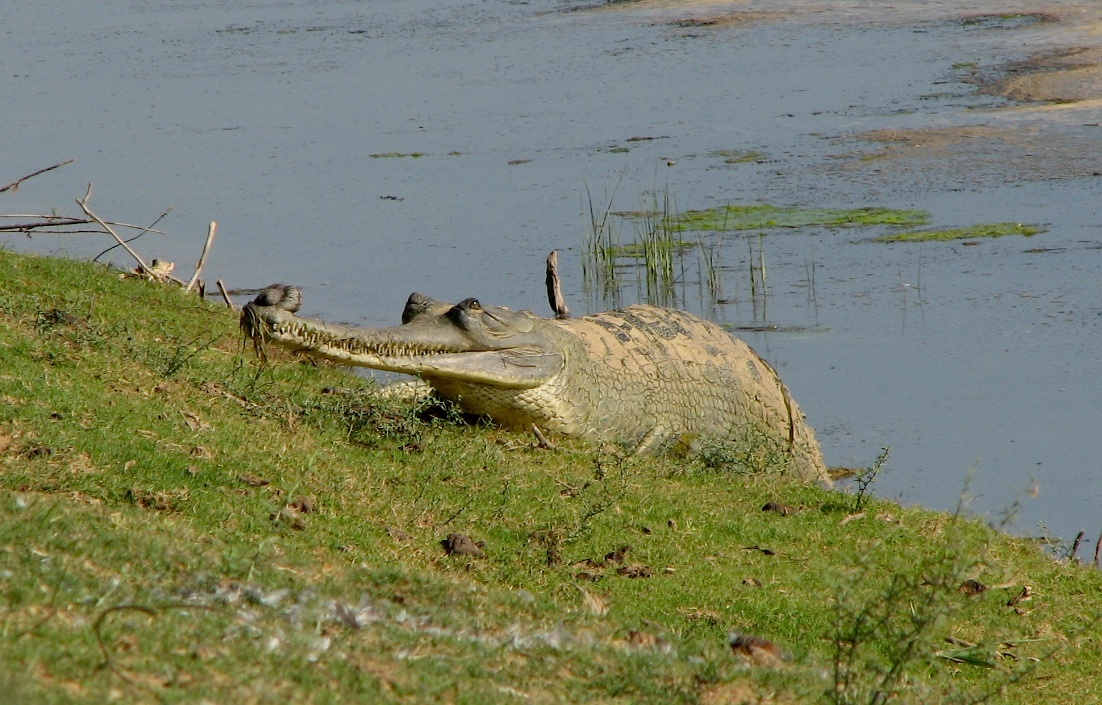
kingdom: Animalia
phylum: Chordata
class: Crocodylia
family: Gavialidae
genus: Gavialis
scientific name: Gavialis gangeticus
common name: Gharial
